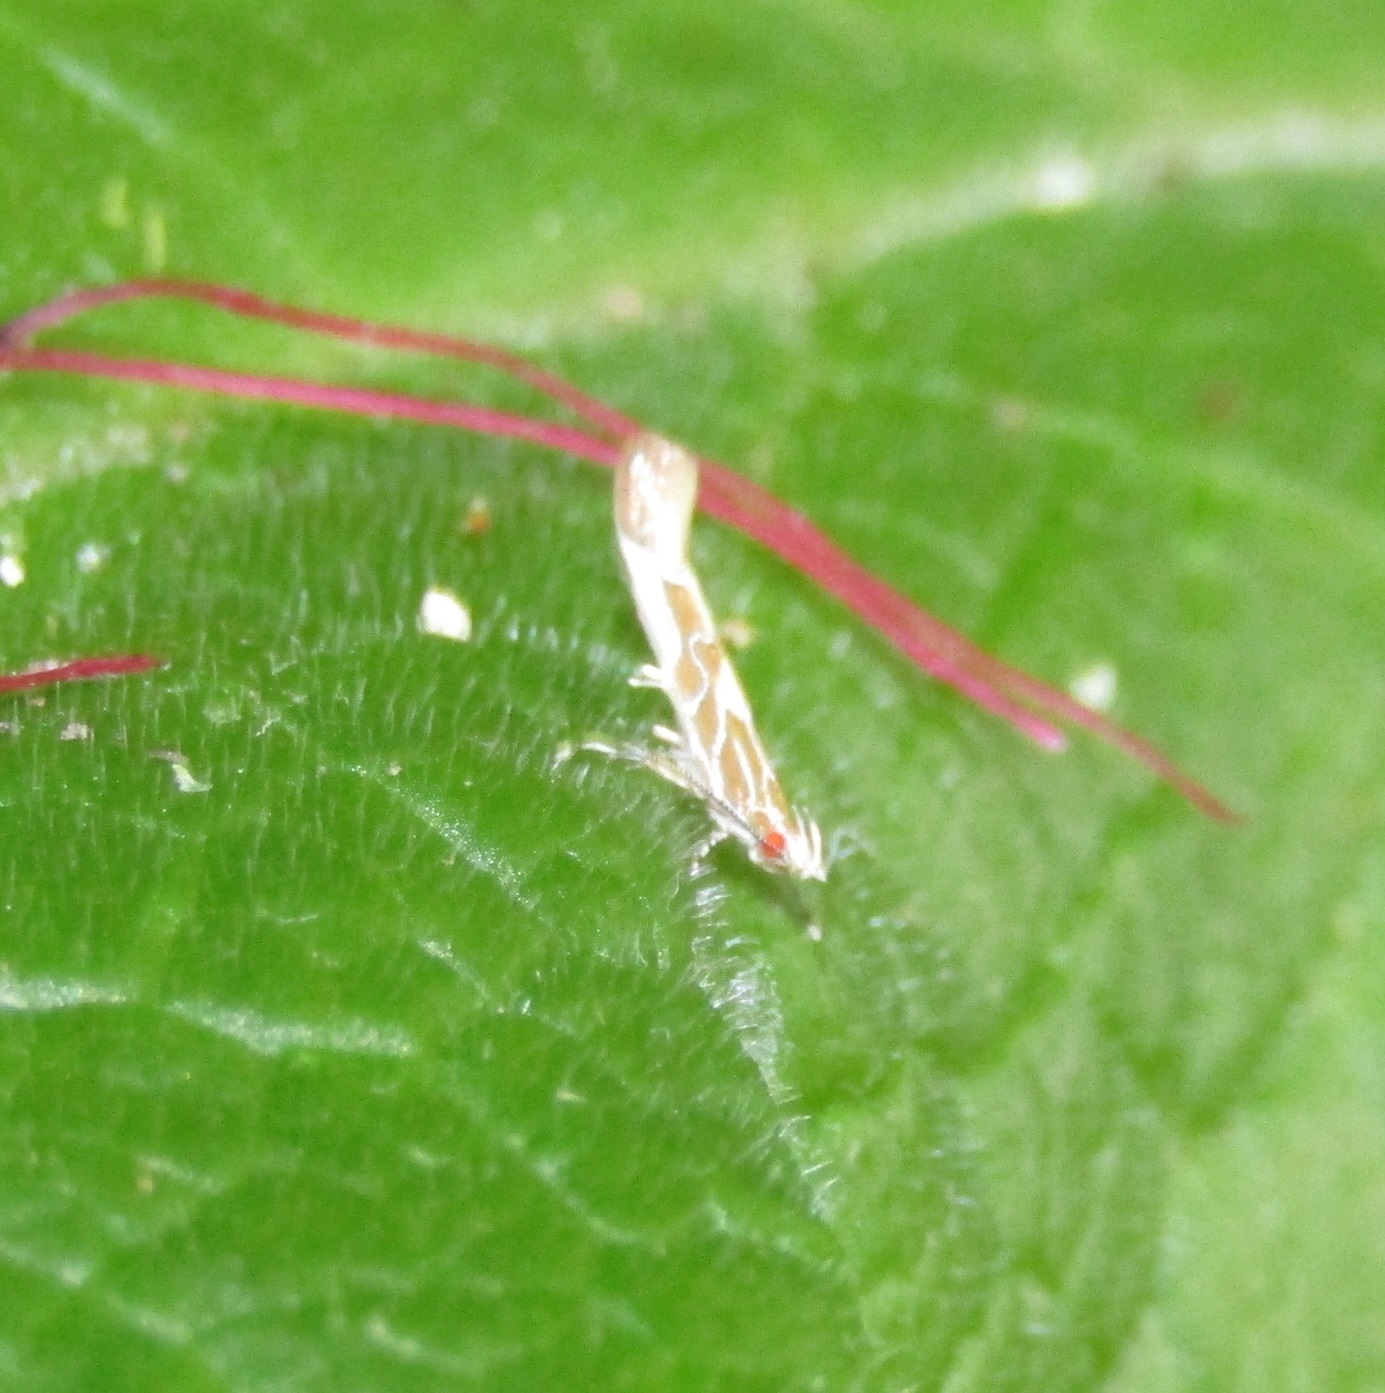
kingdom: Animalia
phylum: Arthropoda
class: Insecta
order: Lepidoptera
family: Cosmopterigidae
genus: Pyroderces
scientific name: Pyroderces apparitella
